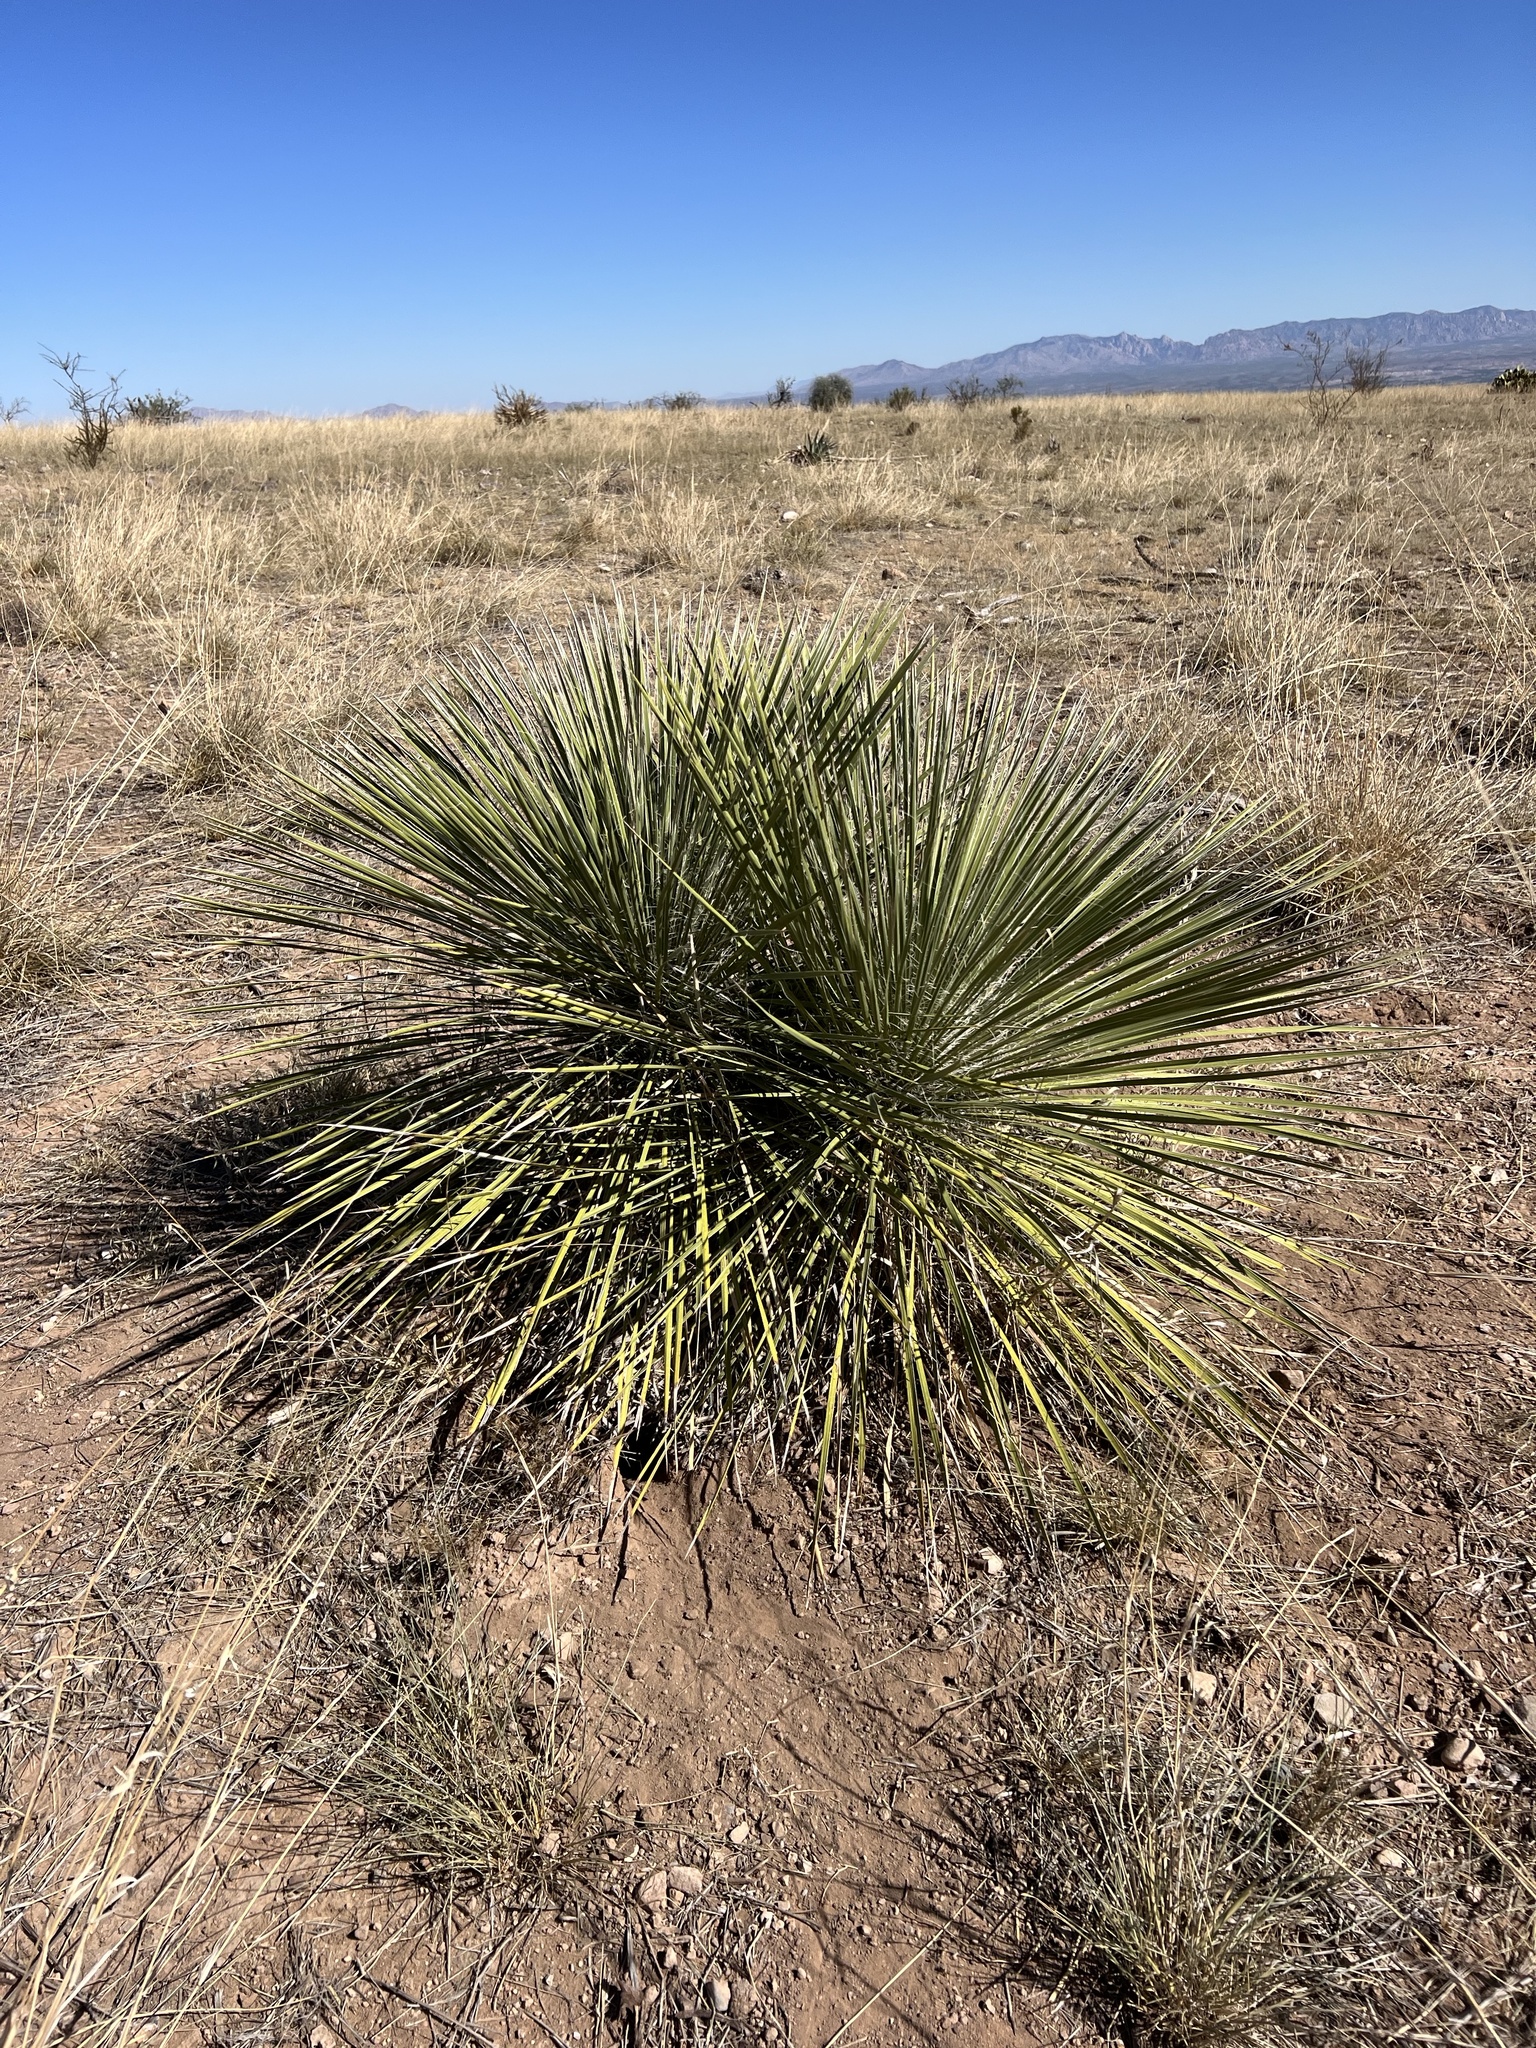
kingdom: Plantae
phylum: Tracheophyta
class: Liliopsida
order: Asparagales
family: Asparagaceae
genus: Yucca
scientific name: Yucca elata
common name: Palmella
